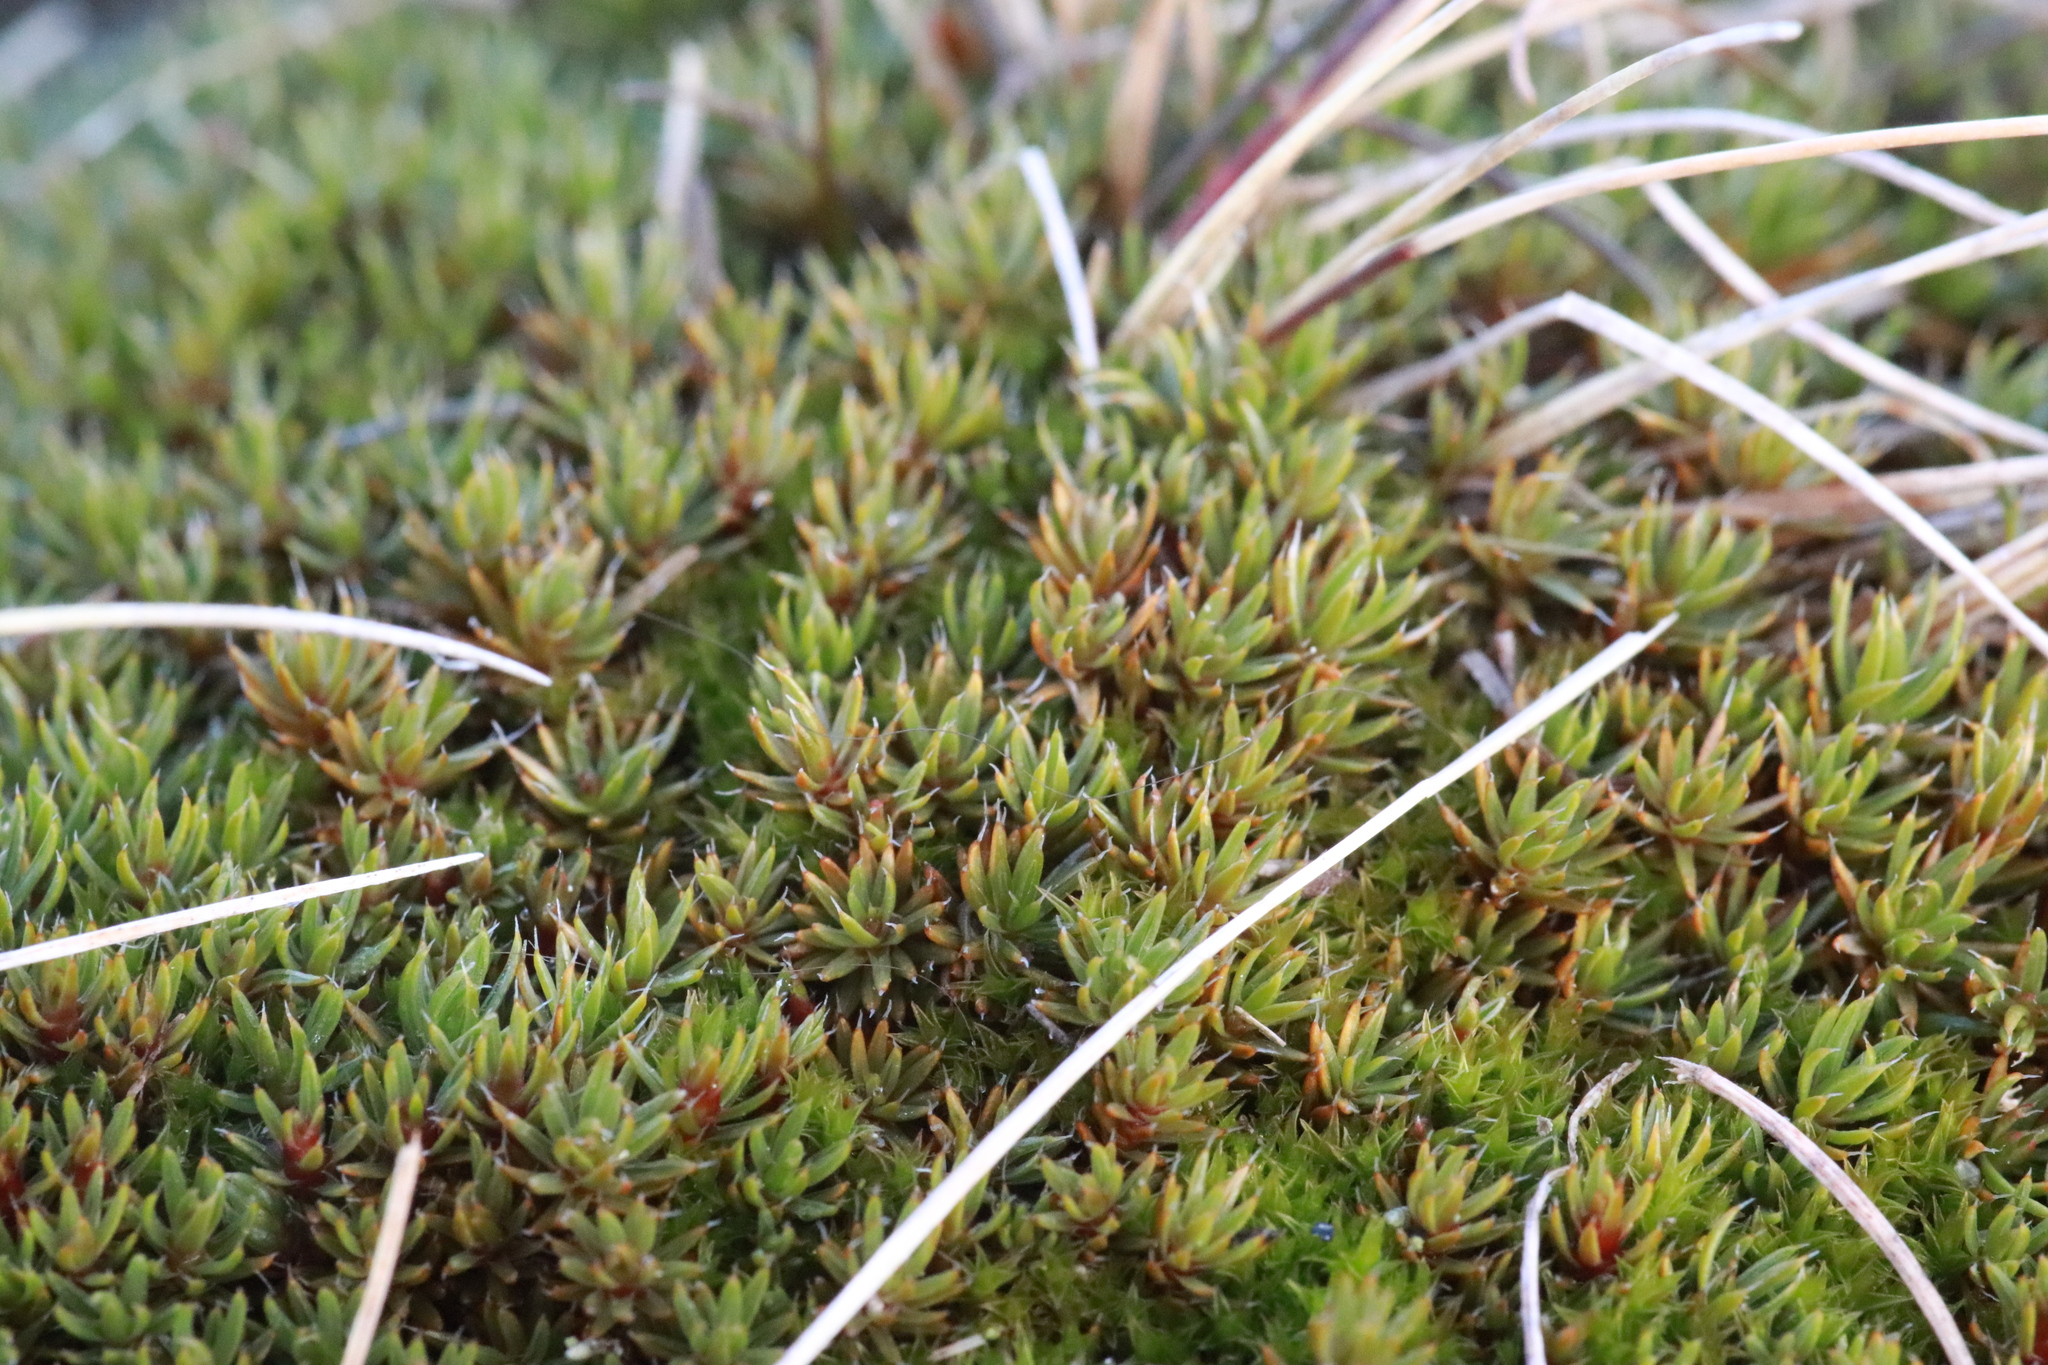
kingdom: Plantae
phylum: Bryophyta
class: Polytrichopsida
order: Polytrichales
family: Polytrichaceae
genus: Polytrichum
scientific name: Polytrichum piliferum
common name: Bristly haircap
